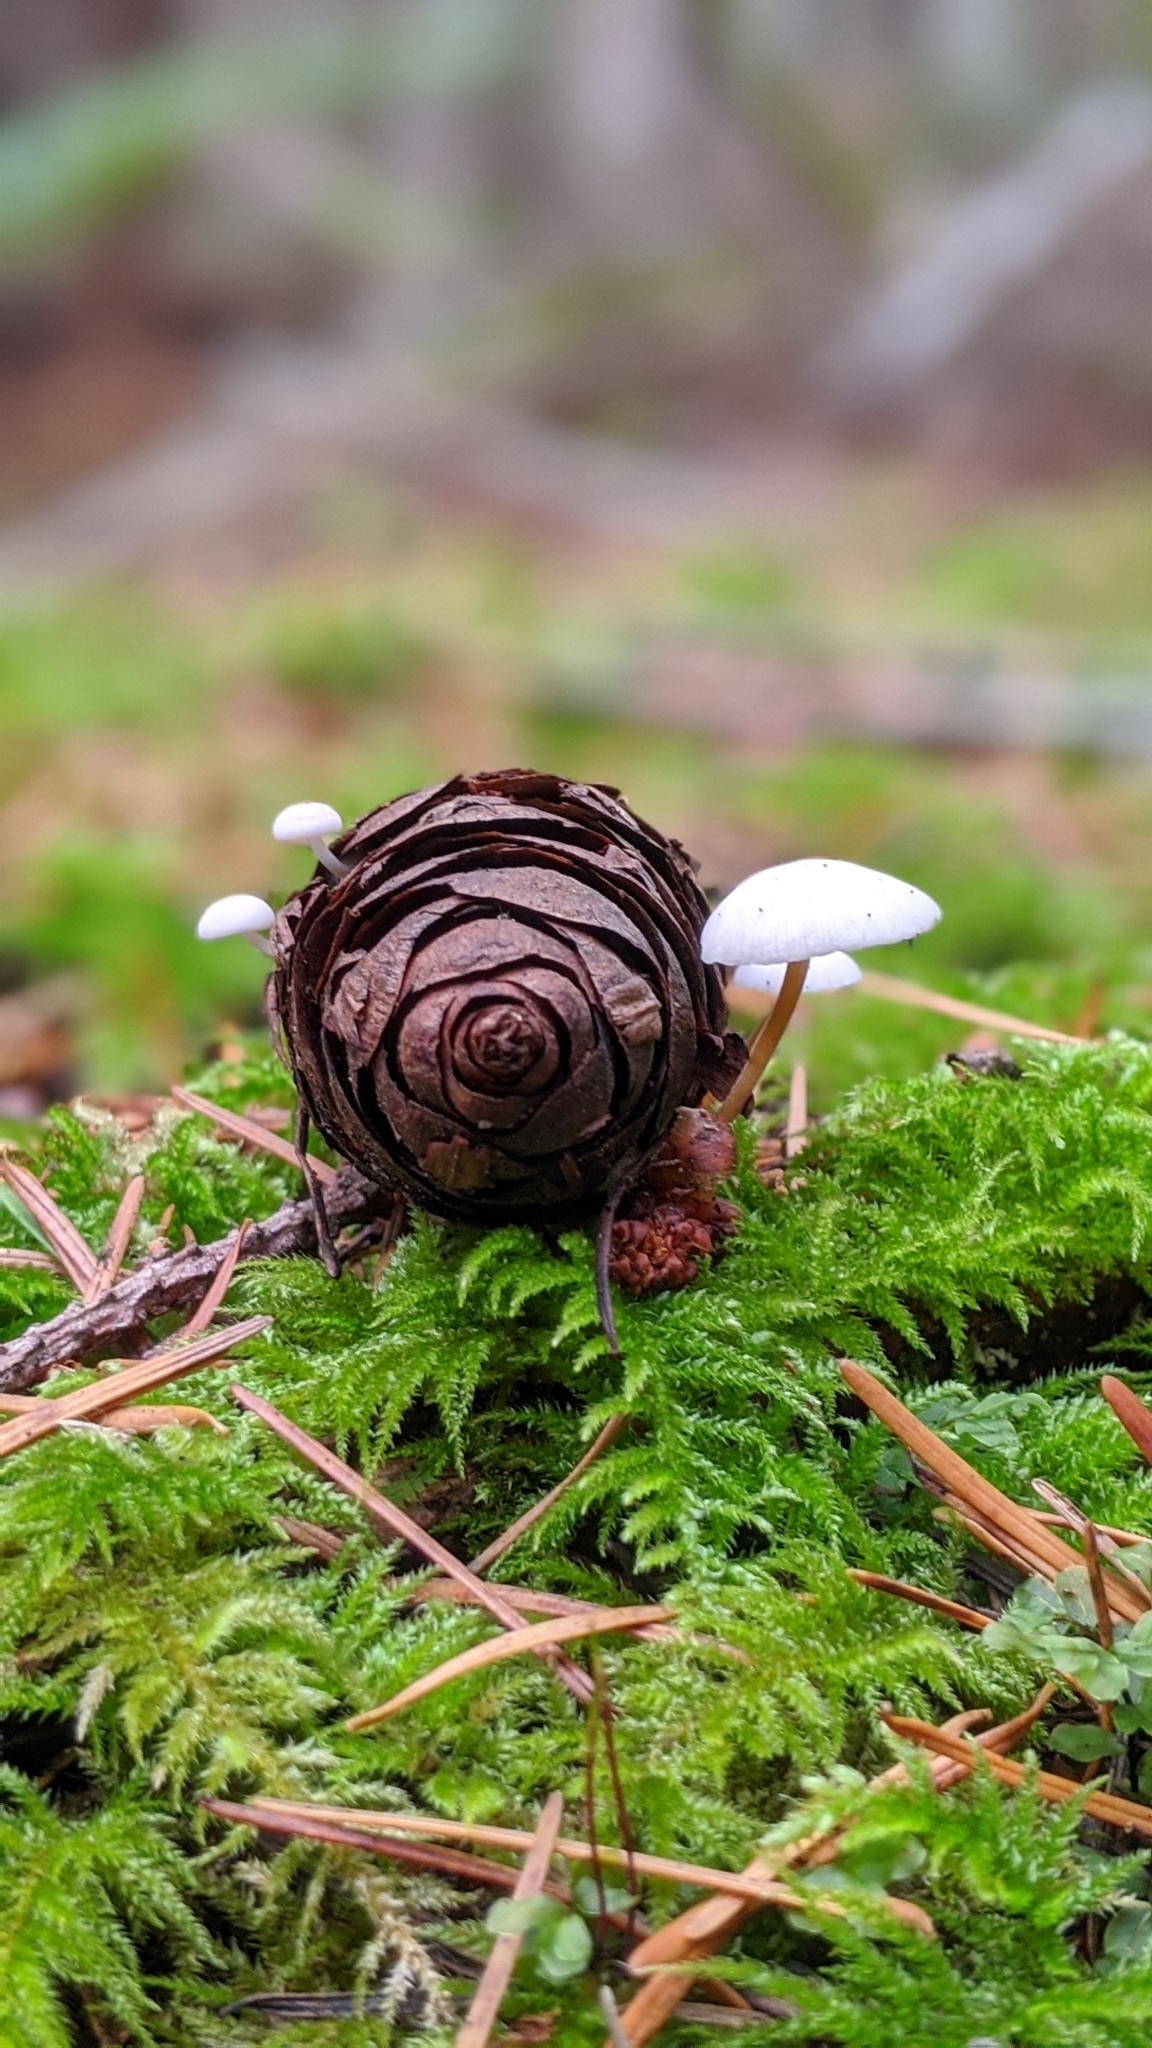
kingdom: Fungi
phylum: Basidiomycota
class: Agaricomycetes
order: Agaricales
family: Physalacriaceae
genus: Strobilurus
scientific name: Strobilurus trullisatus
